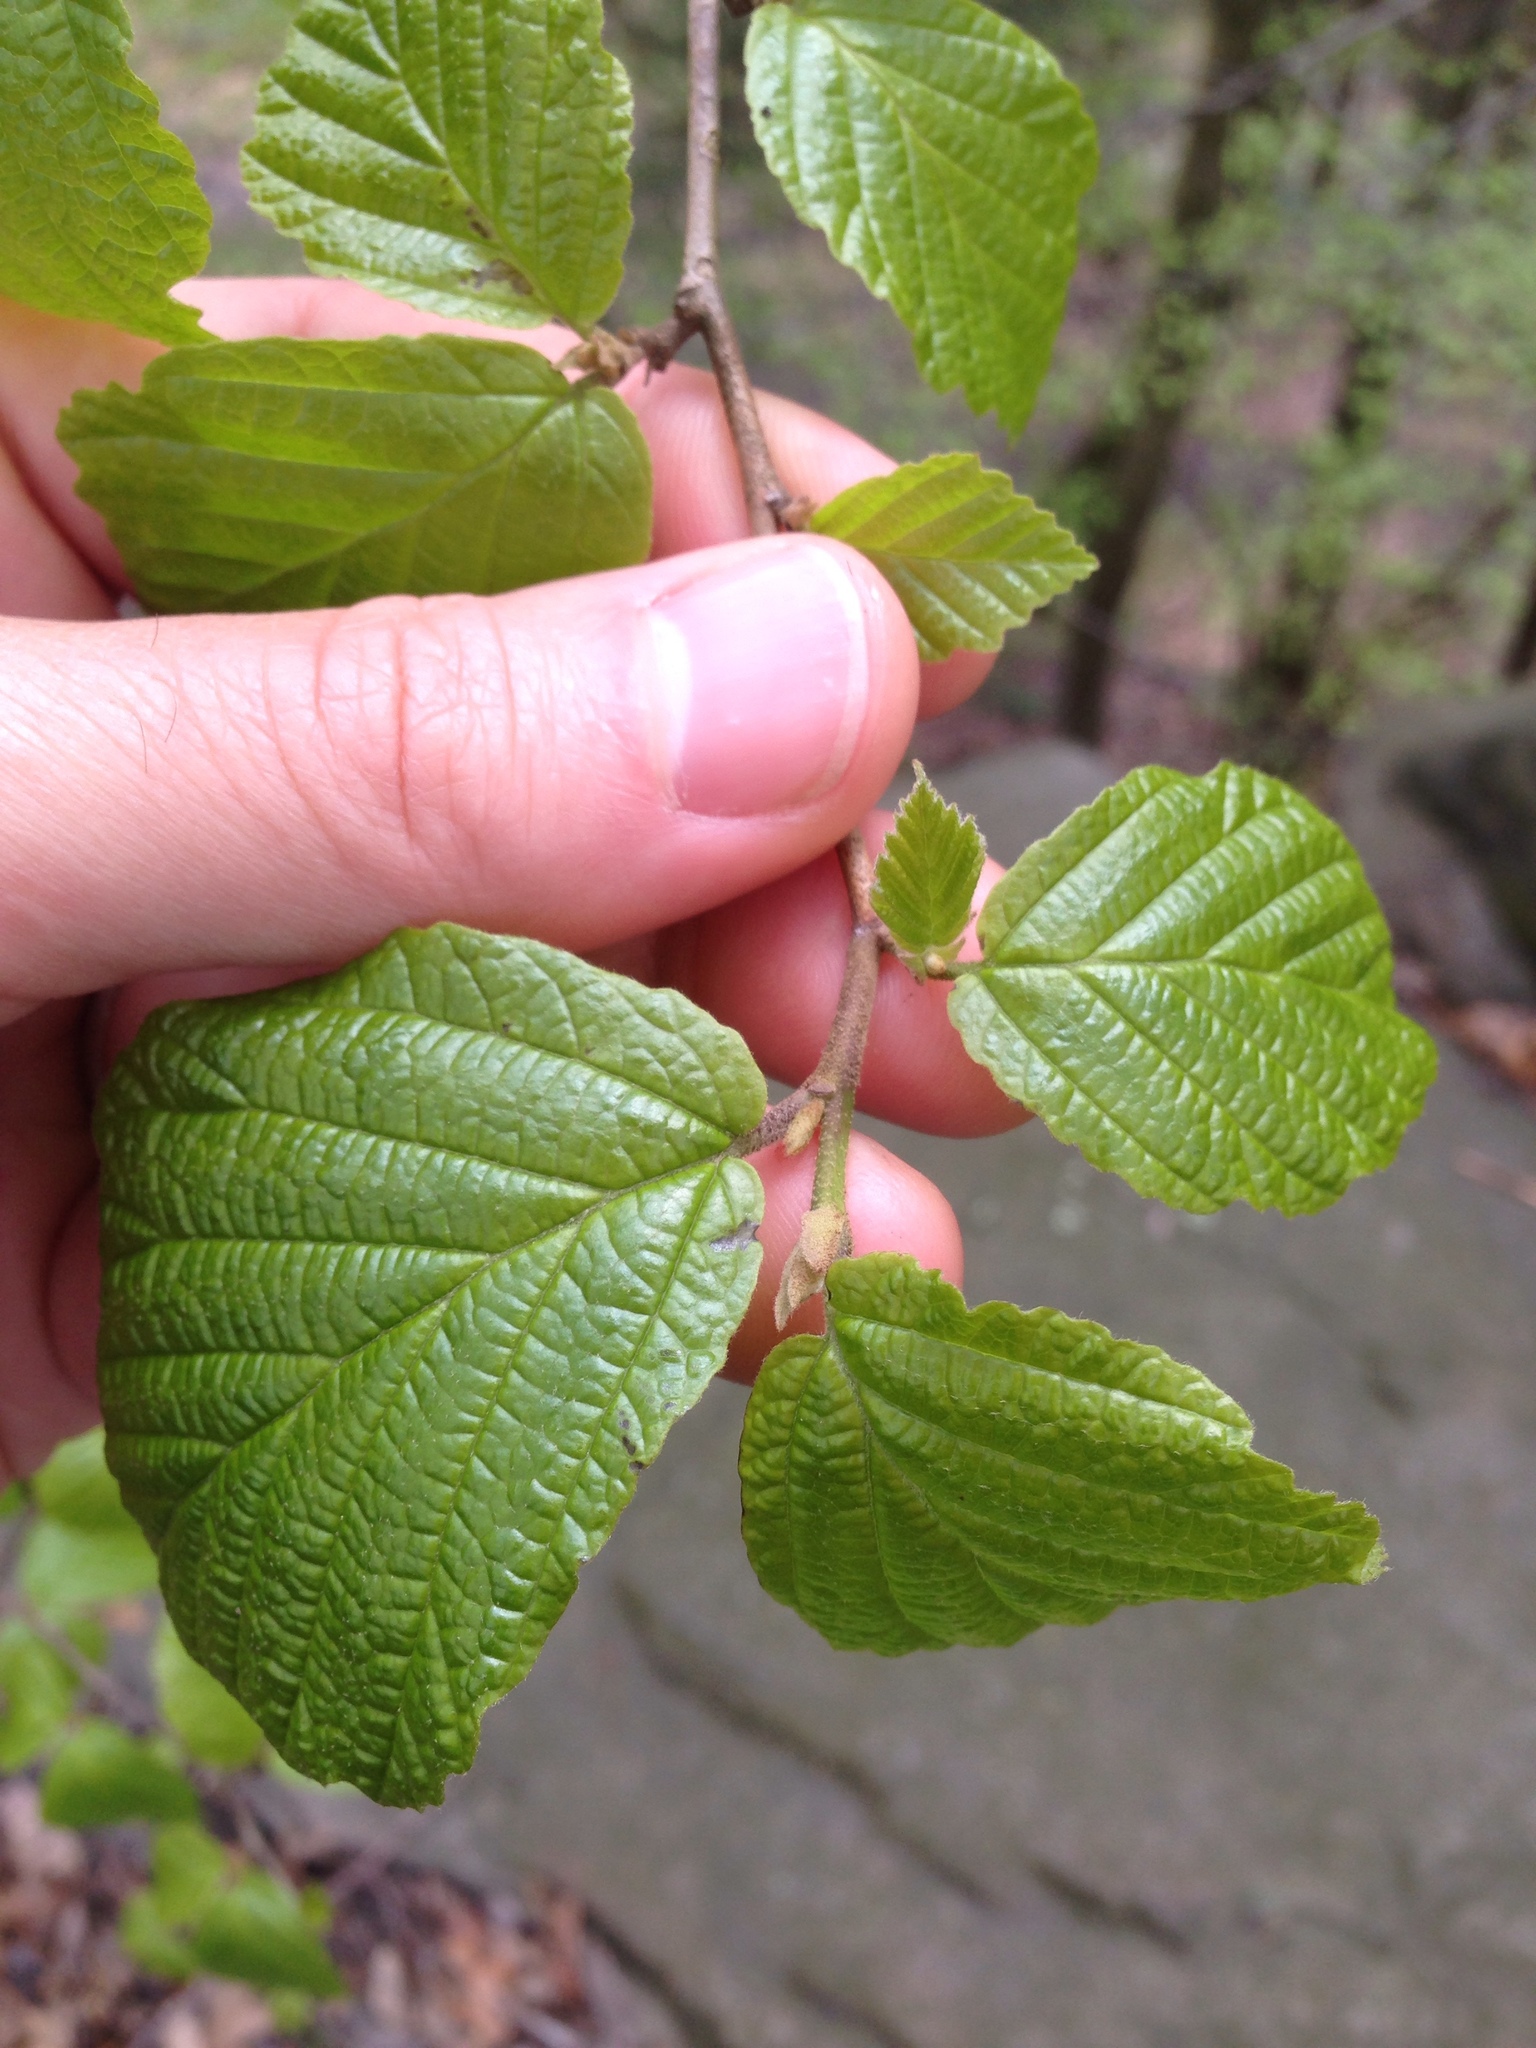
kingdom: Plantae
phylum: Tracheophyta
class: Magnoliopsida
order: Saxifragales
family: Hamamelidaceae
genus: Hamamelis
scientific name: Hamamelis virginiana
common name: Witch-hazel
